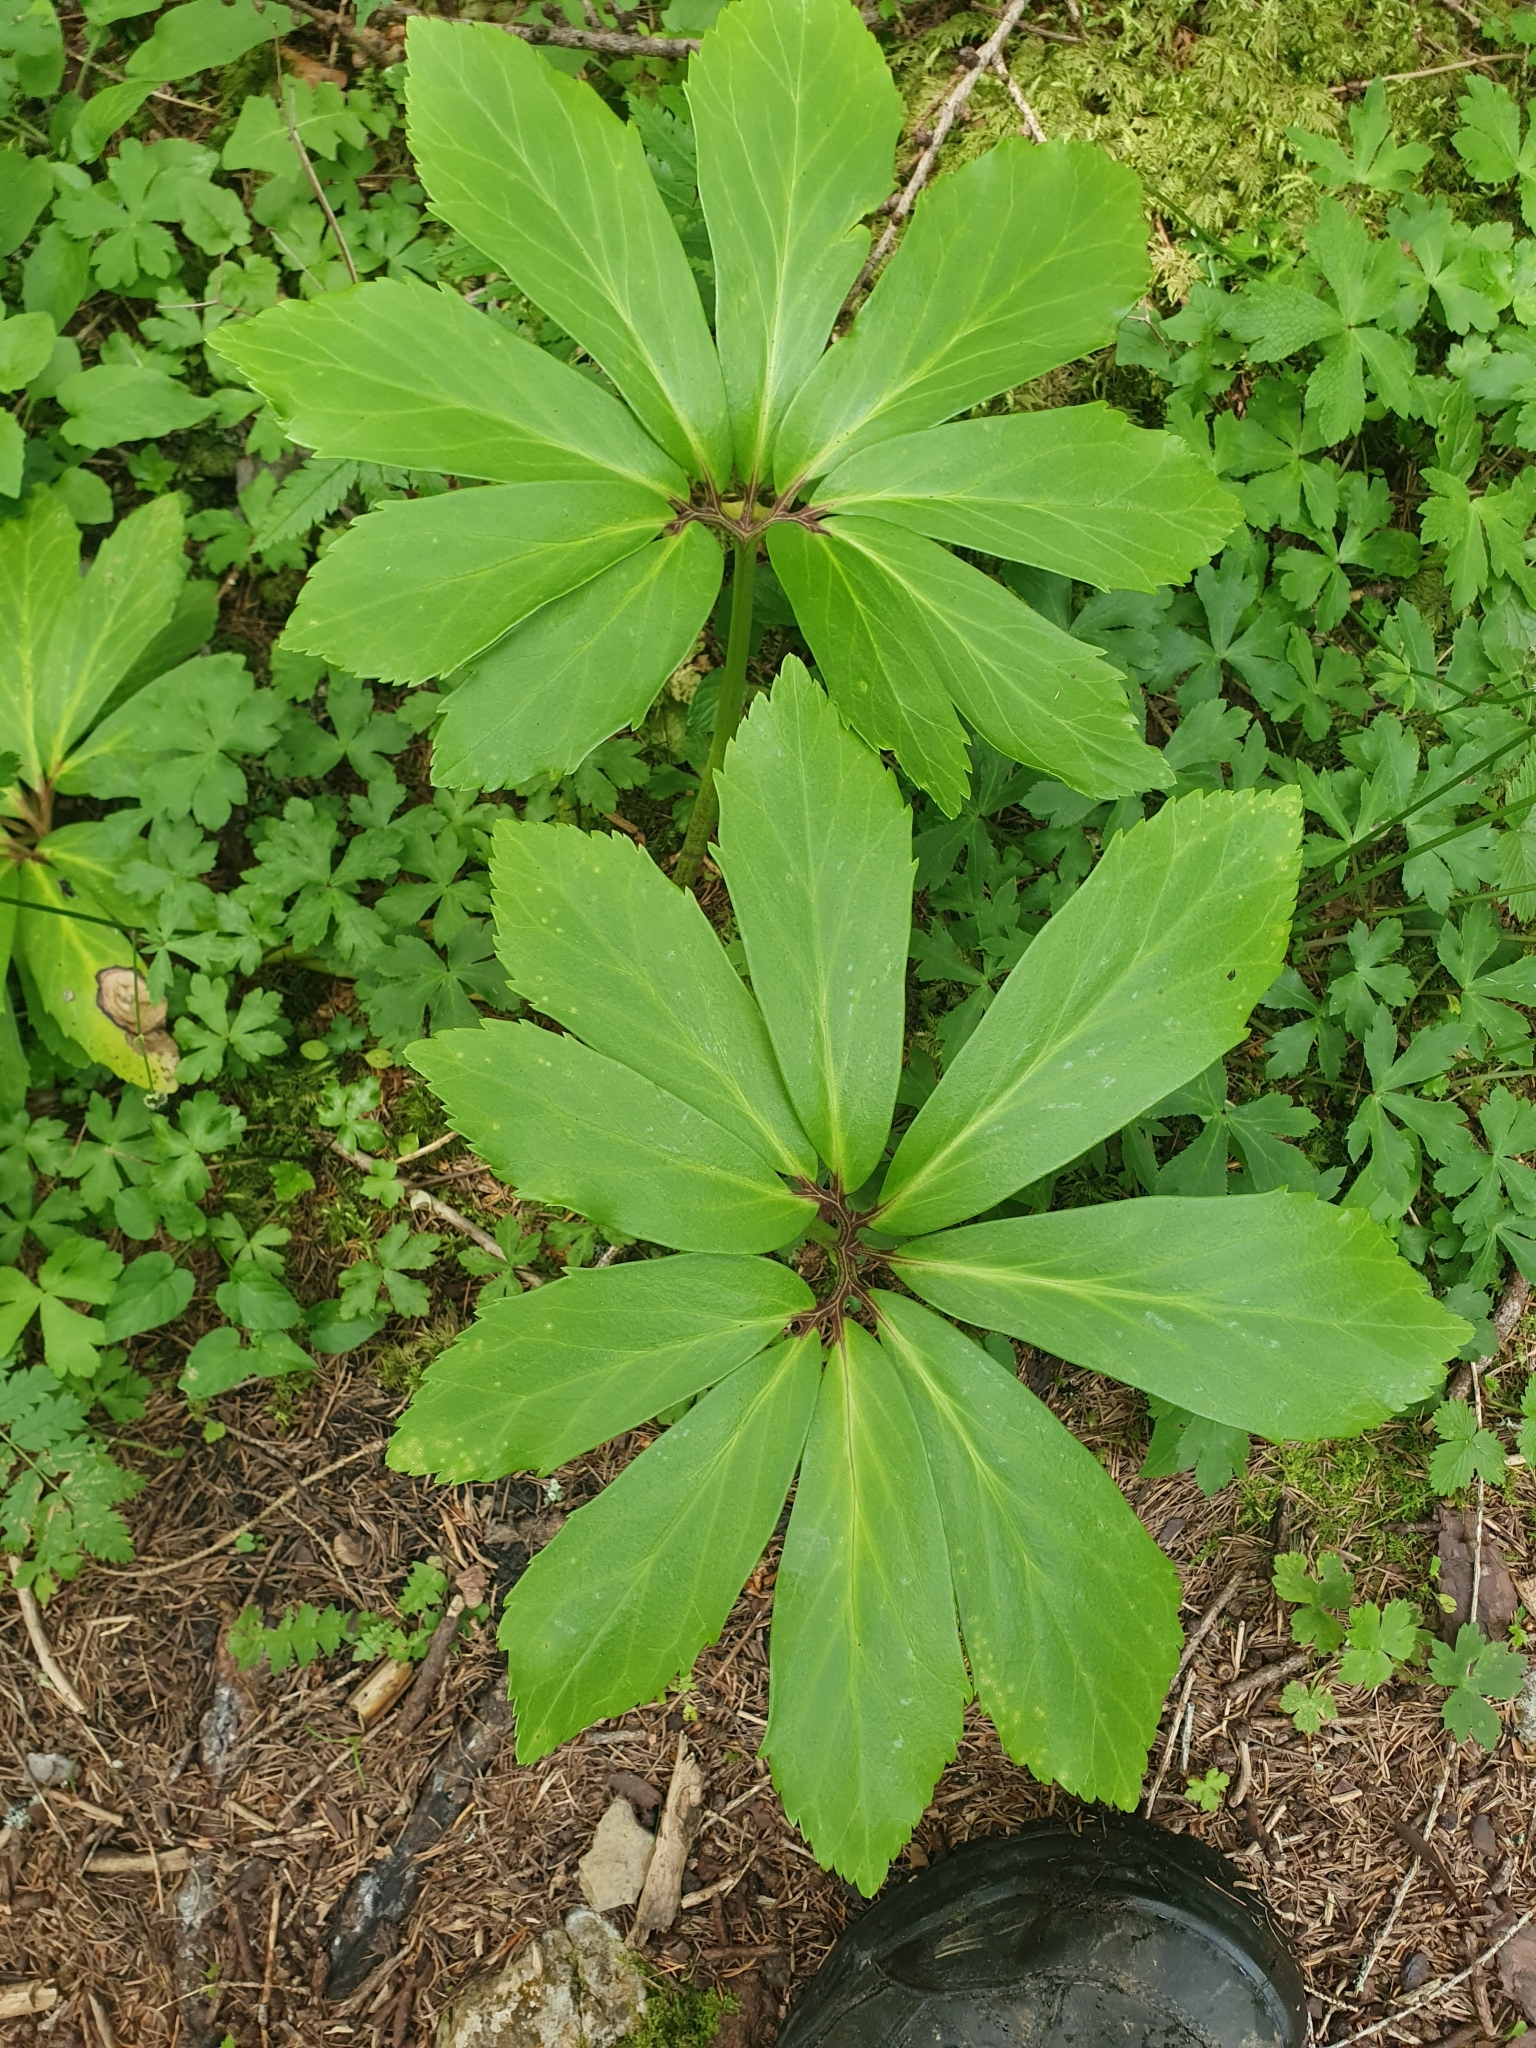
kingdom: Plantae
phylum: Tracheophyta
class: Magnoliopsida
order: Ranunculales
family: Ranunculaceae
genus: Helleborus
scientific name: Helleborus niger
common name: Black hellebore
